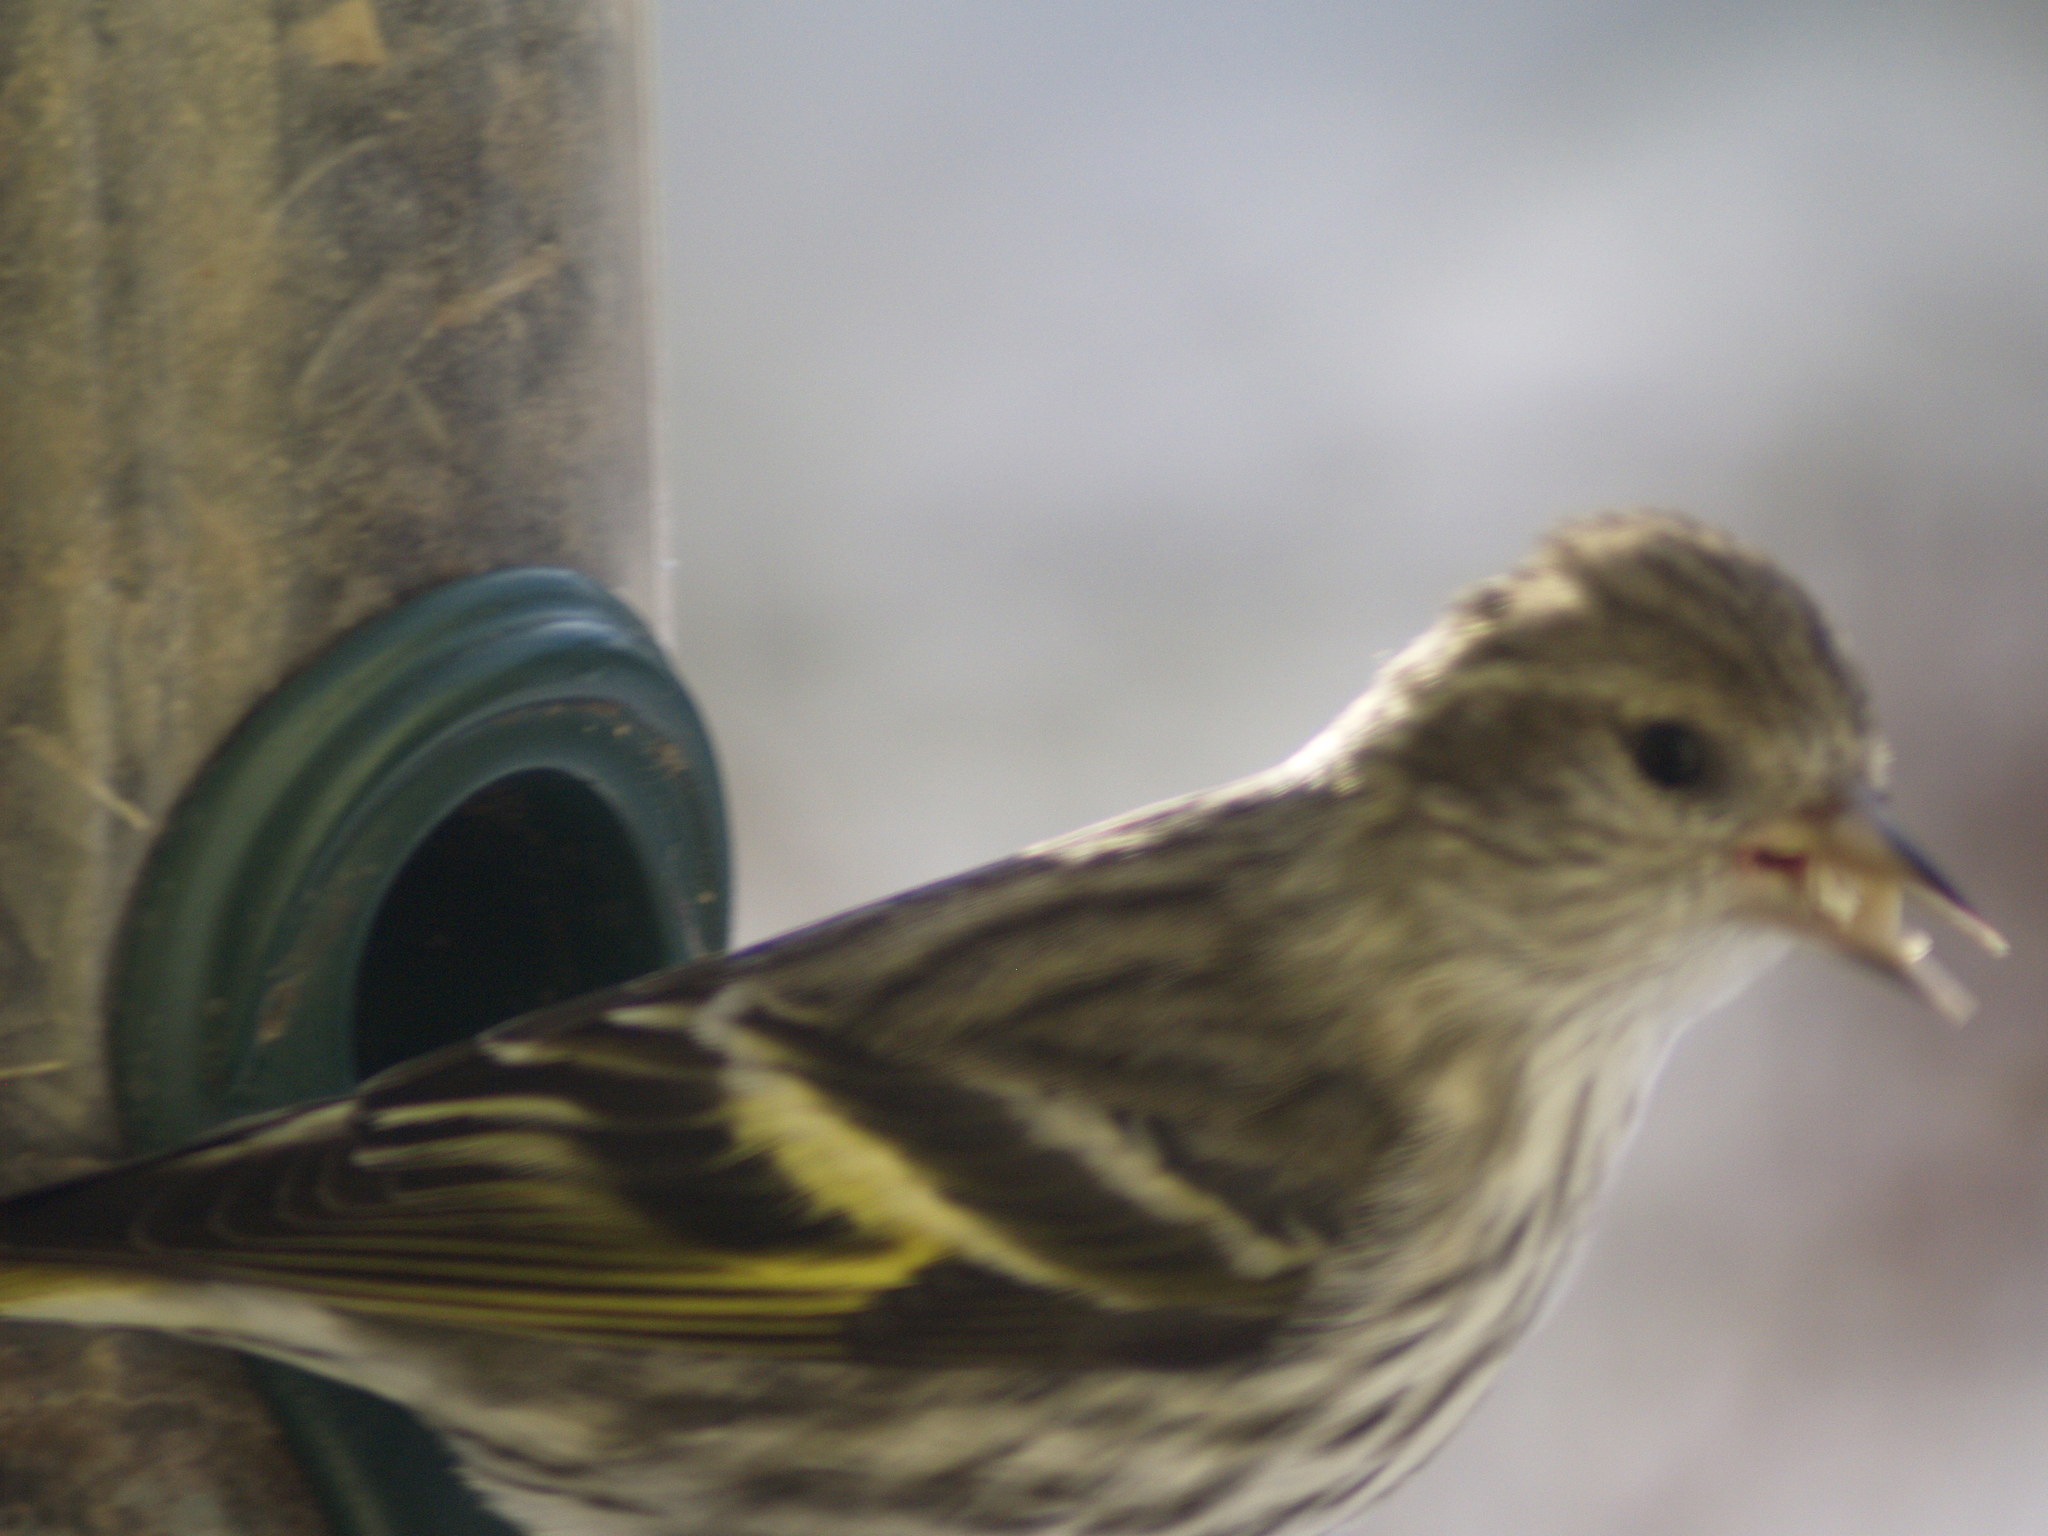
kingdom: Animalia
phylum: Chordata
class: Aves
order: Passeriformes
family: Fringillidae
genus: Spinus
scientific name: Spinus pinus
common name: Pine siskin
